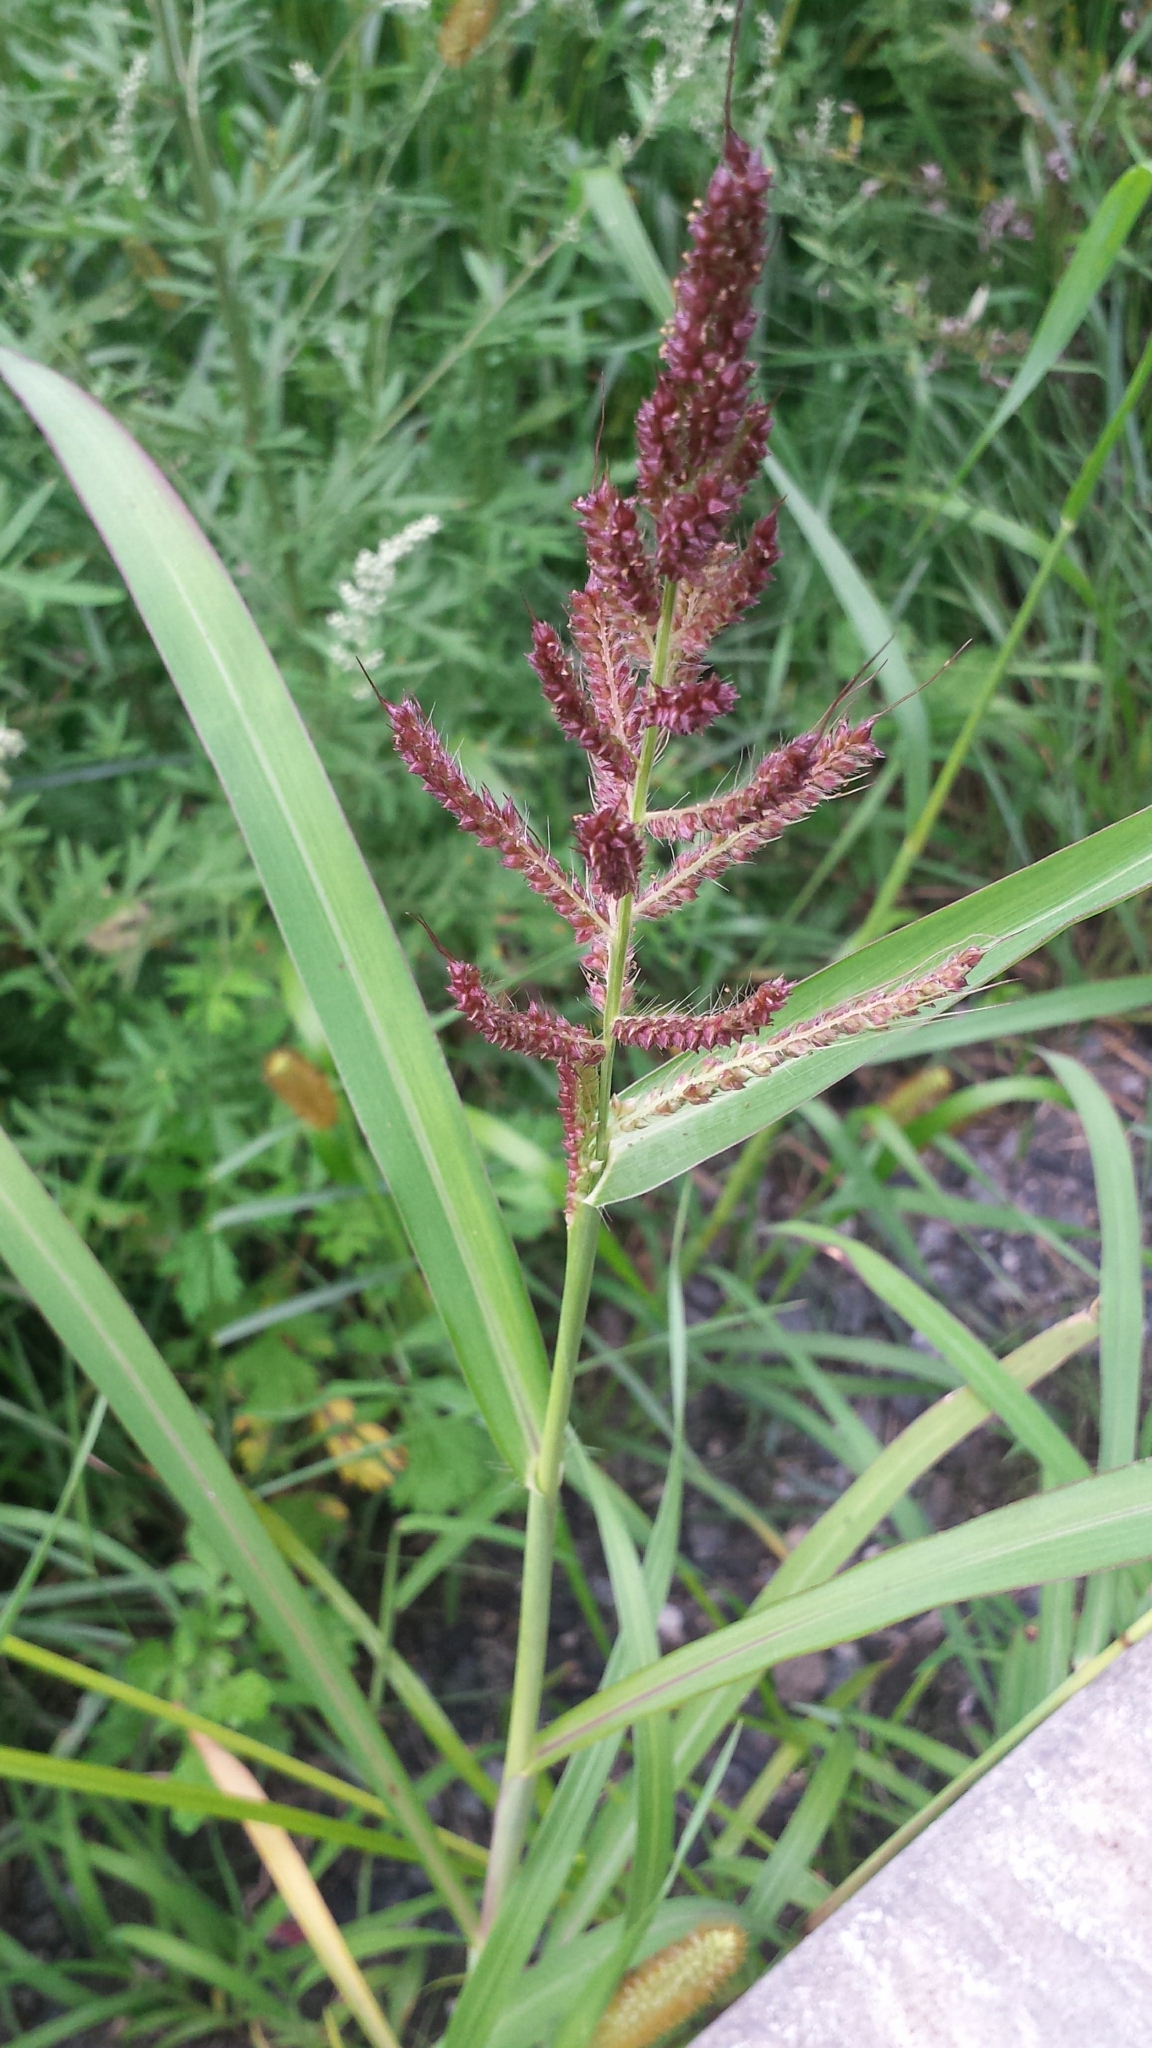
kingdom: Plantae
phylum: Tracheophyta
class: Liliopsida
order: Poales
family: Poaceae
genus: Echinochloa
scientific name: Echinochloa crus-galli
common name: Cockspur
